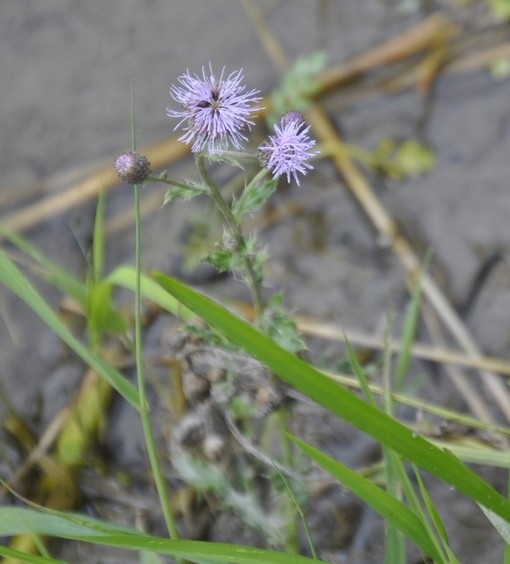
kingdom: Plantae
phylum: Tracheophyta
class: Magnoliopsida
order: Asterales
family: Asteraceae
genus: Cirsium
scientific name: Cirsium arvense
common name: Creeping thistle
